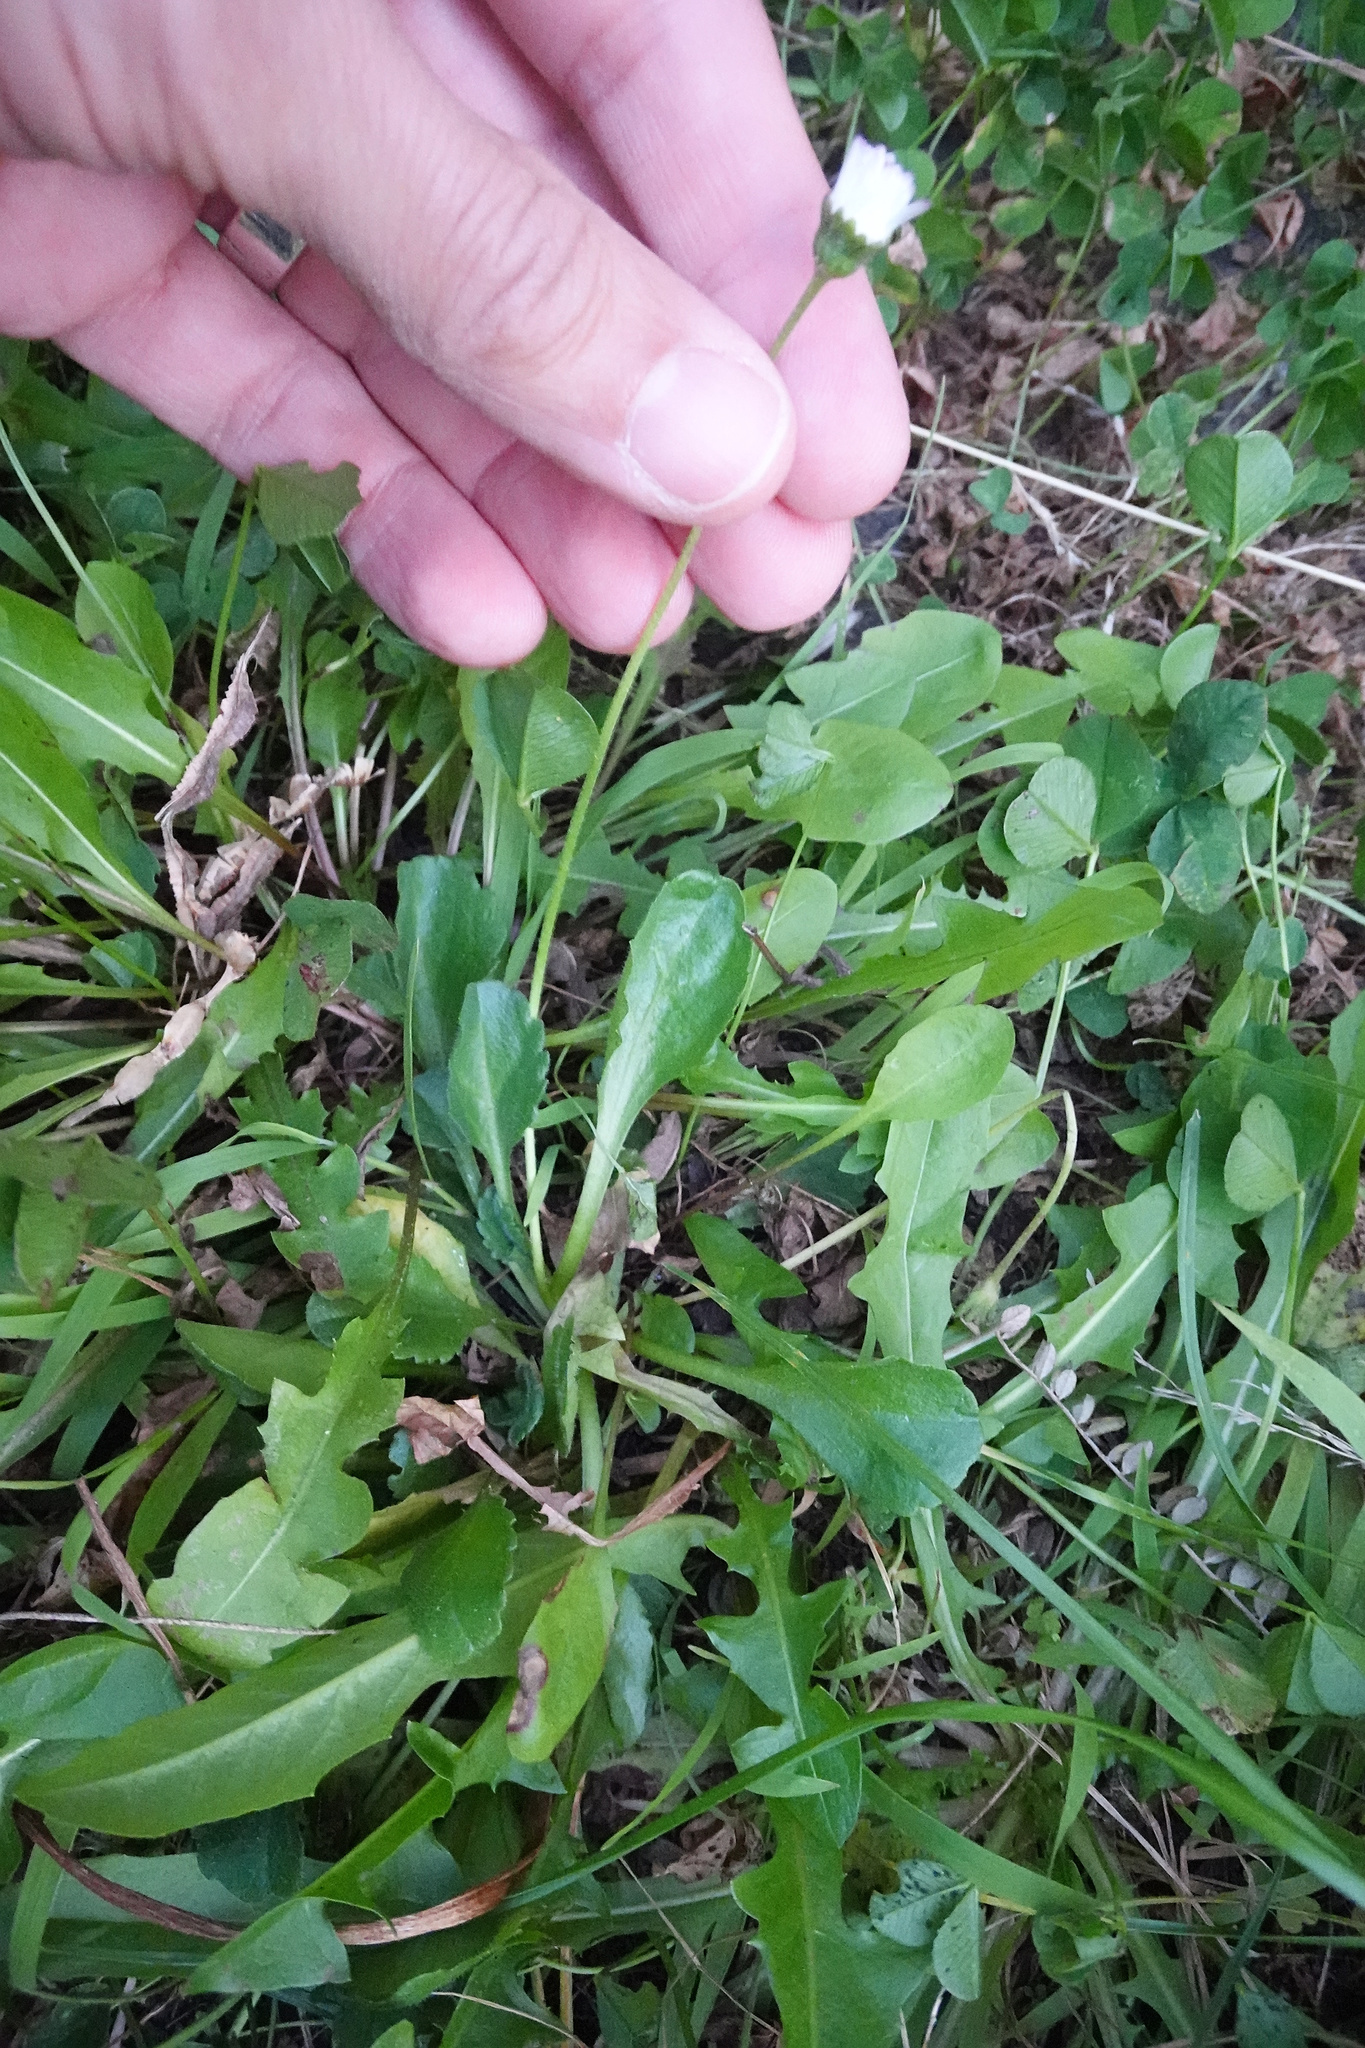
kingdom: Plantae
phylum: Tracheophyta
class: Magnoliopsida
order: Asterales
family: Asteraceae
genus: Bellis
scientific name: Bellis perennis
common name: Lawndaisy
